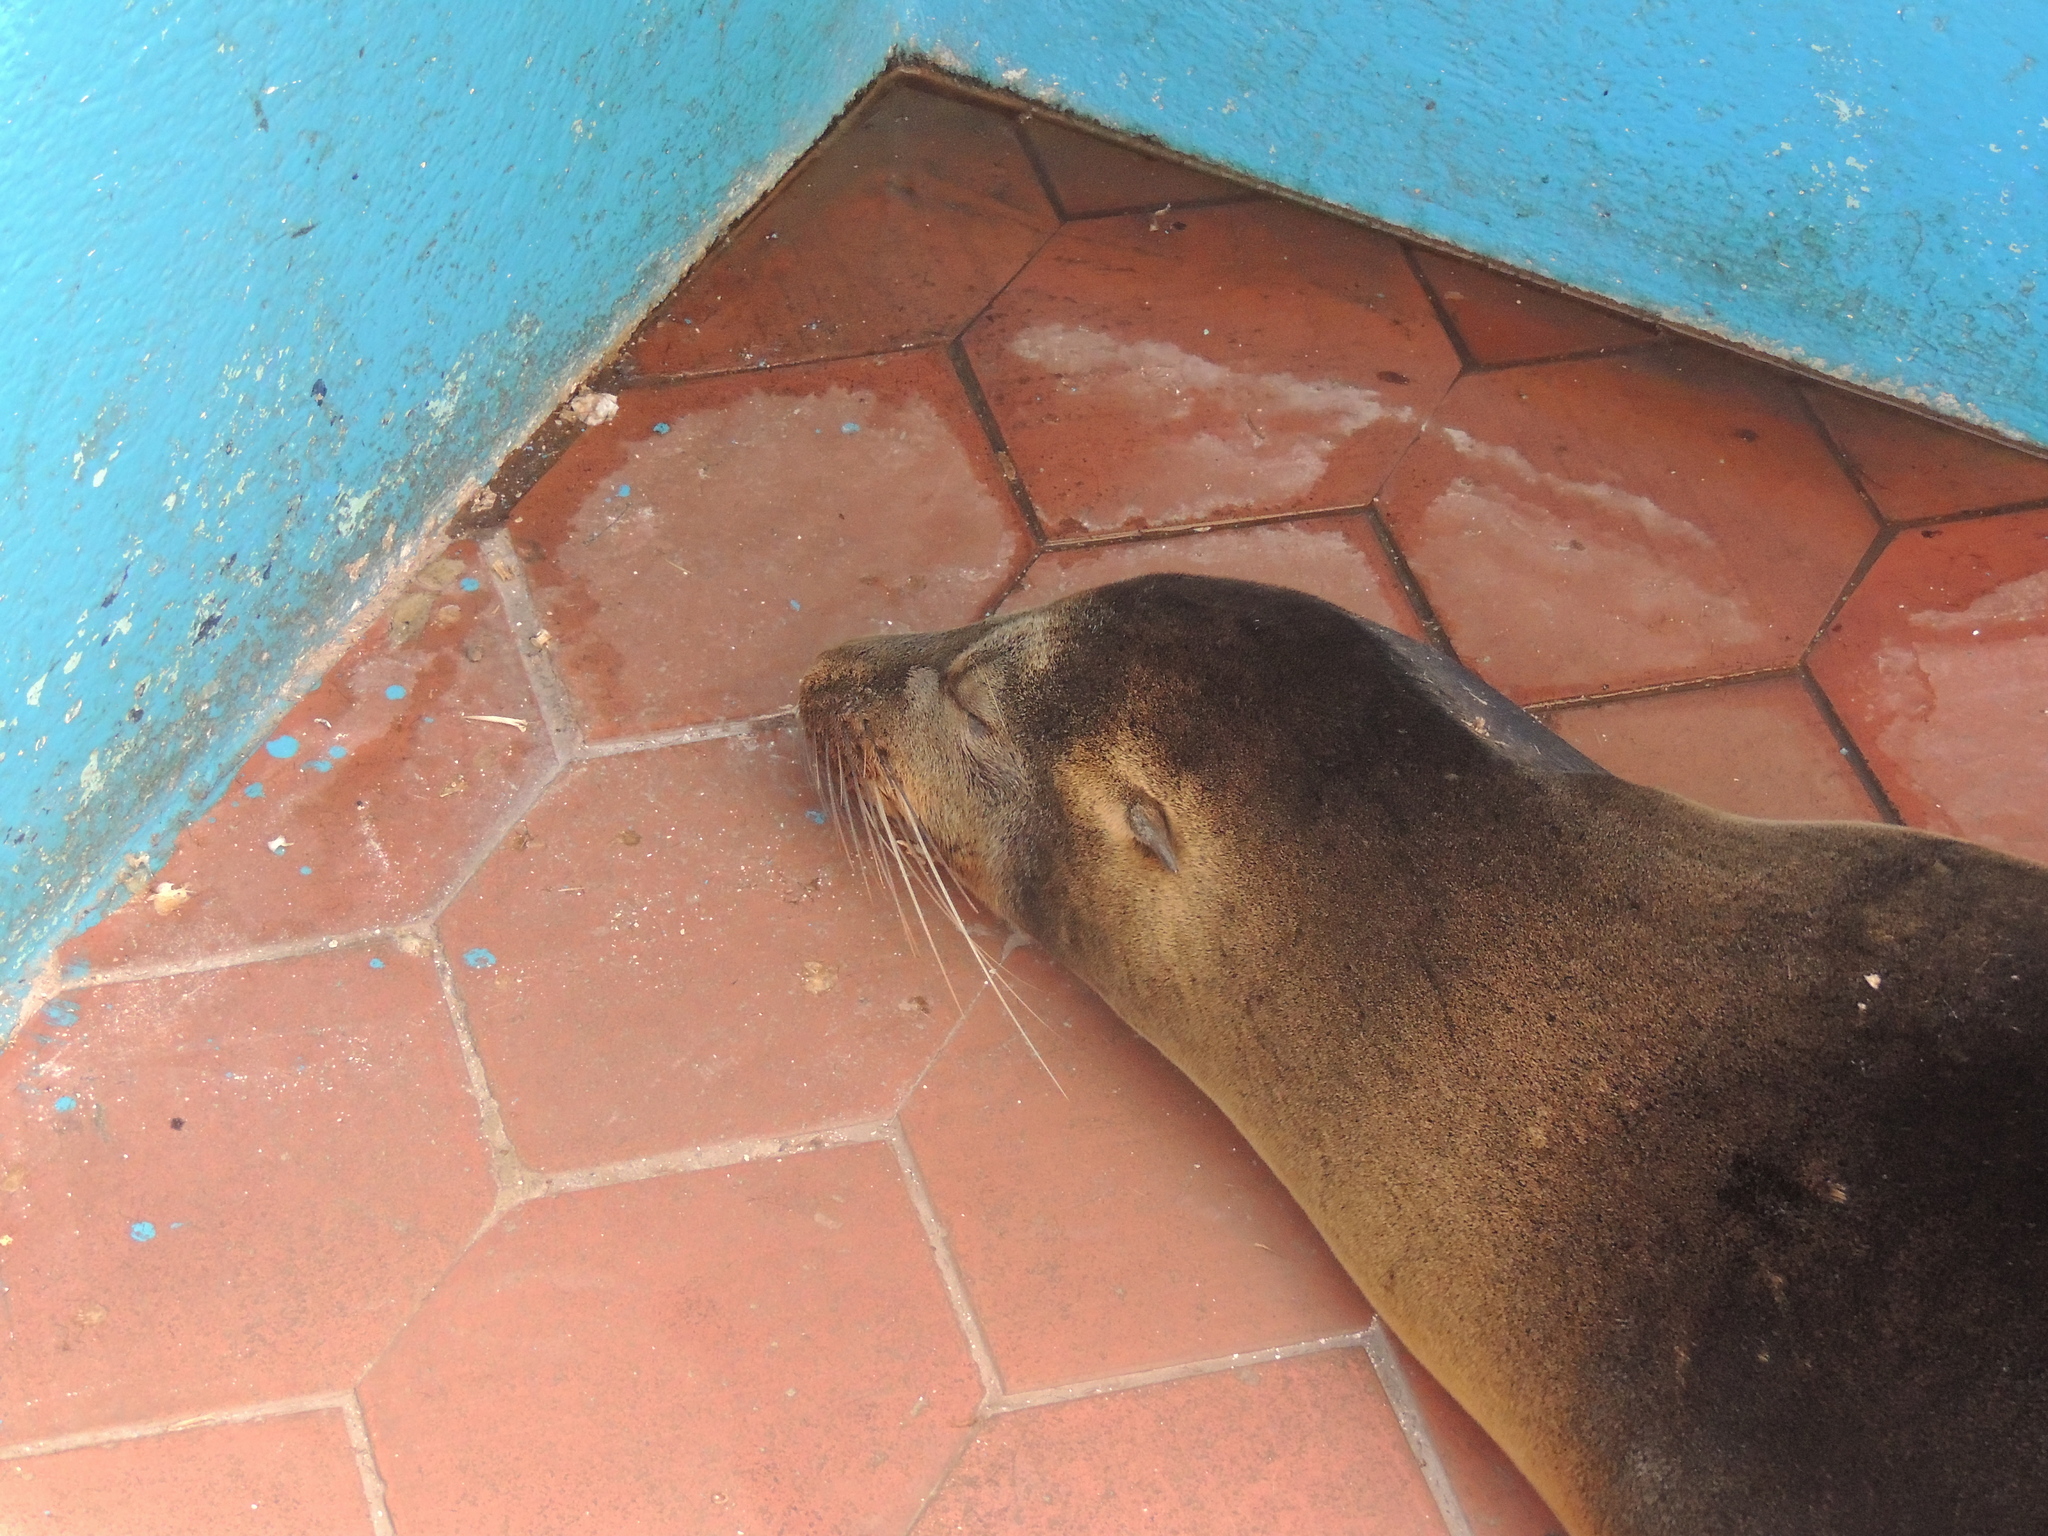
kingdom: Animalia
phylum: Chordata
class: Mammalia
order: Carnivora
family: Otariidae
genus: Zalophus
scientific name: Zalophus wollebaeki
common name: Galapagos sea lion
